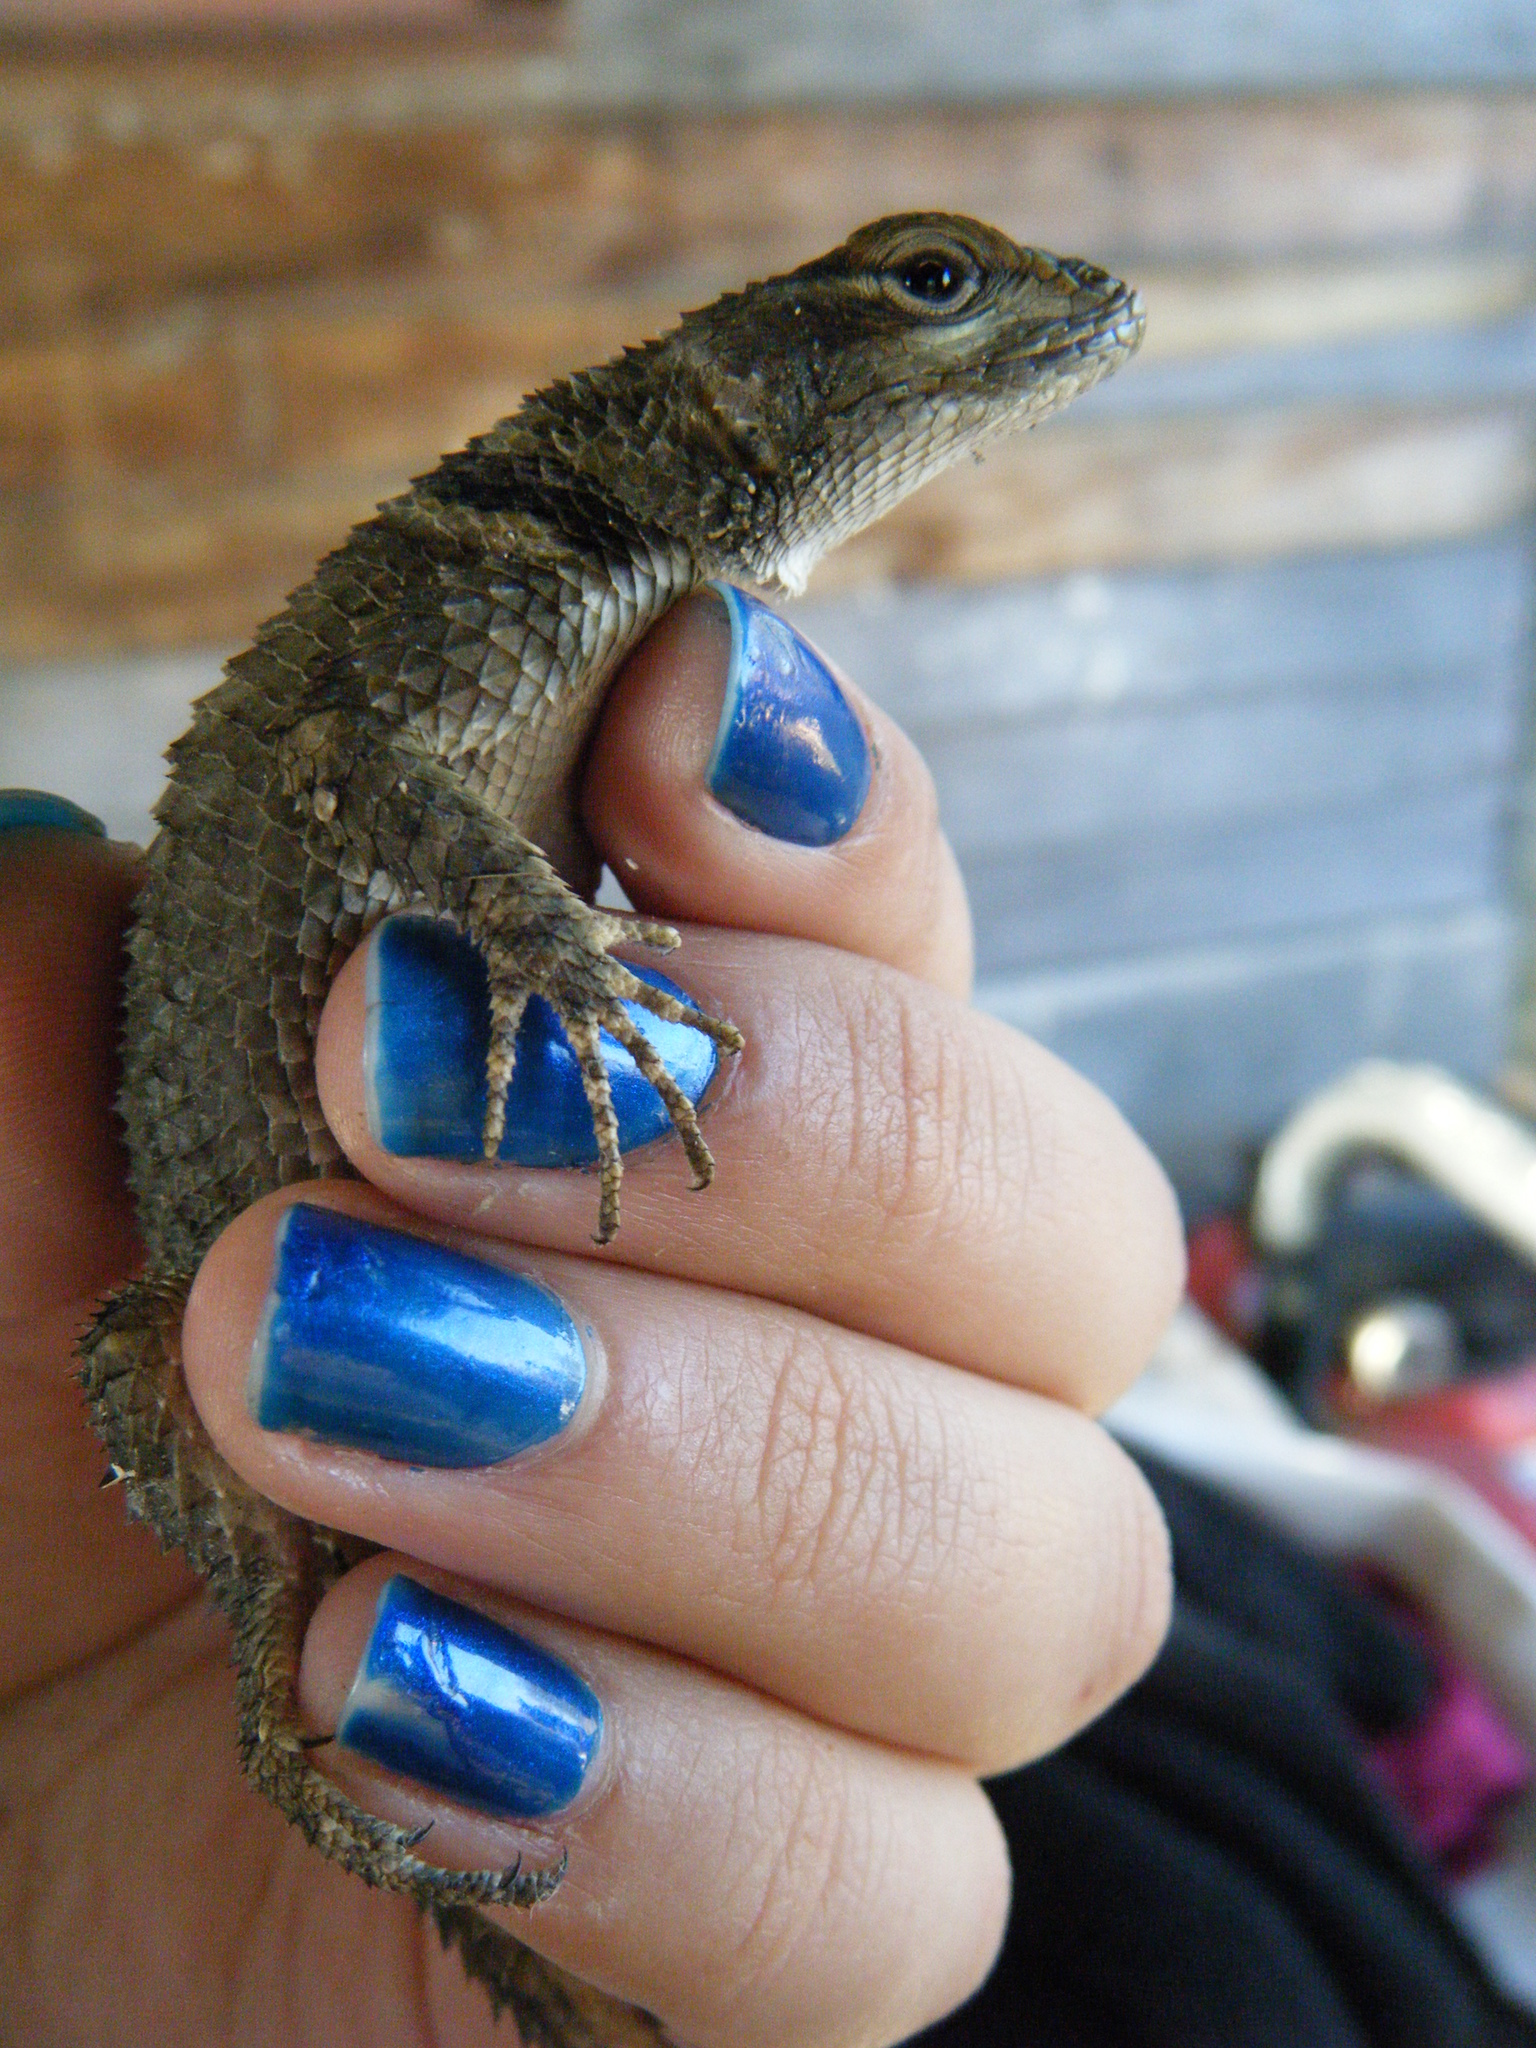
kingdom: Animalia
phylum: Chordata
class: Squamata
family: Phrynosomatidae
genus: Sceloporus
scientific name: Sceloporus cyanogenys
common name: Blue spiny lizard
